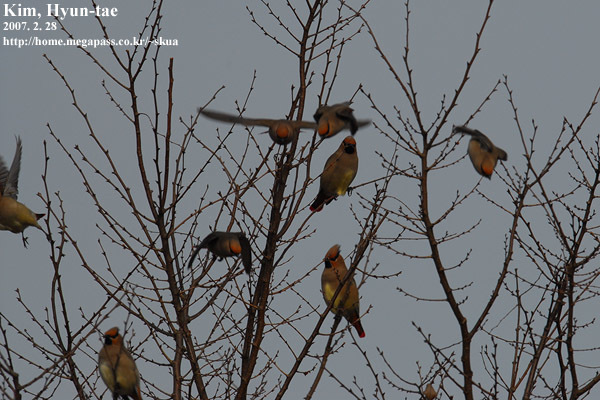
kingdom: Animalia
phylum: Chordata
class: Aves
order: Passeriformes
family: Bombycillidae
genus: Bombycilla
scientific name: Bombycilla japonica
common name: Japanese waxwing
